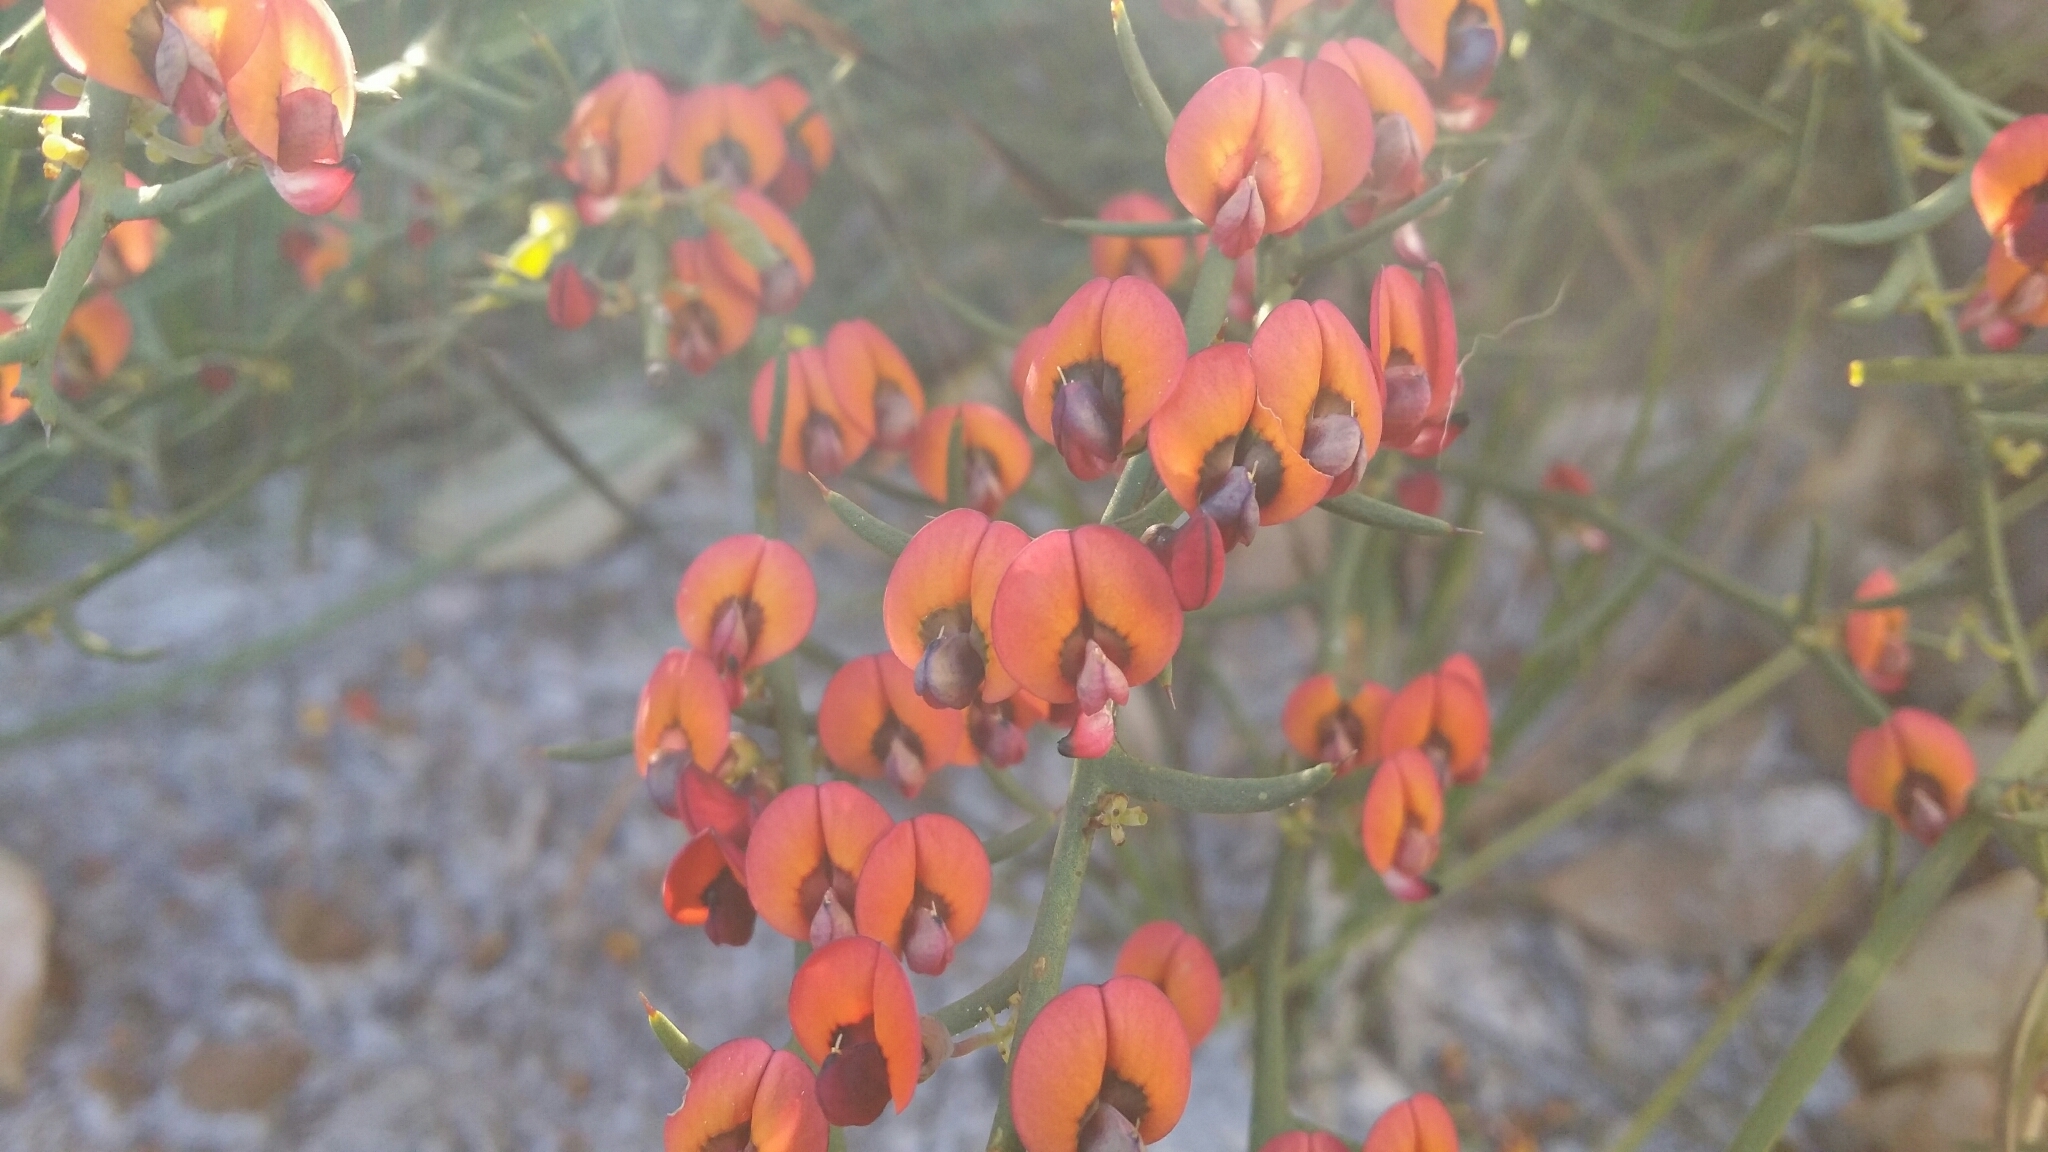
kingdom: Plantae
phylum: Tracheophyta
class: Magnoliopsida
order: Fabales
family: Fabaceae
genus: Daviesia
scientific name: Daviesia incrassata
